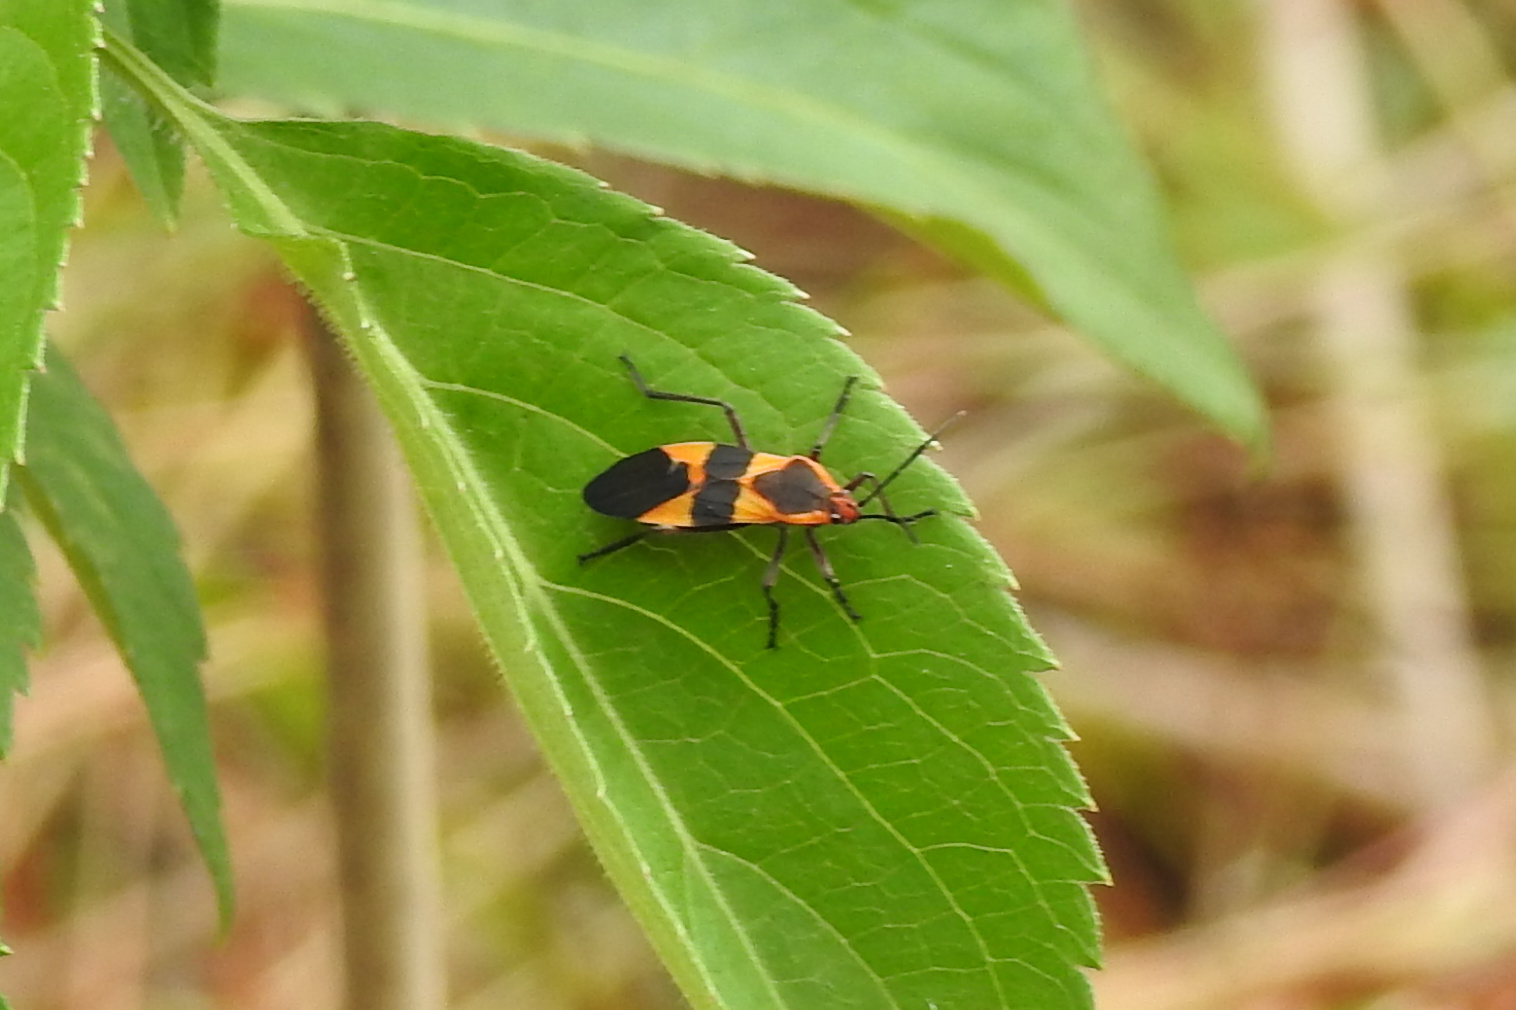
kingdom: Animalia
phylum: Arthropoda
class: Insecta
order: Hemiptera
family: Lygaeidae
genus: Oncopeltus
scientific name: Oncopeltus fasciatus
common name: Large milkweed bug
